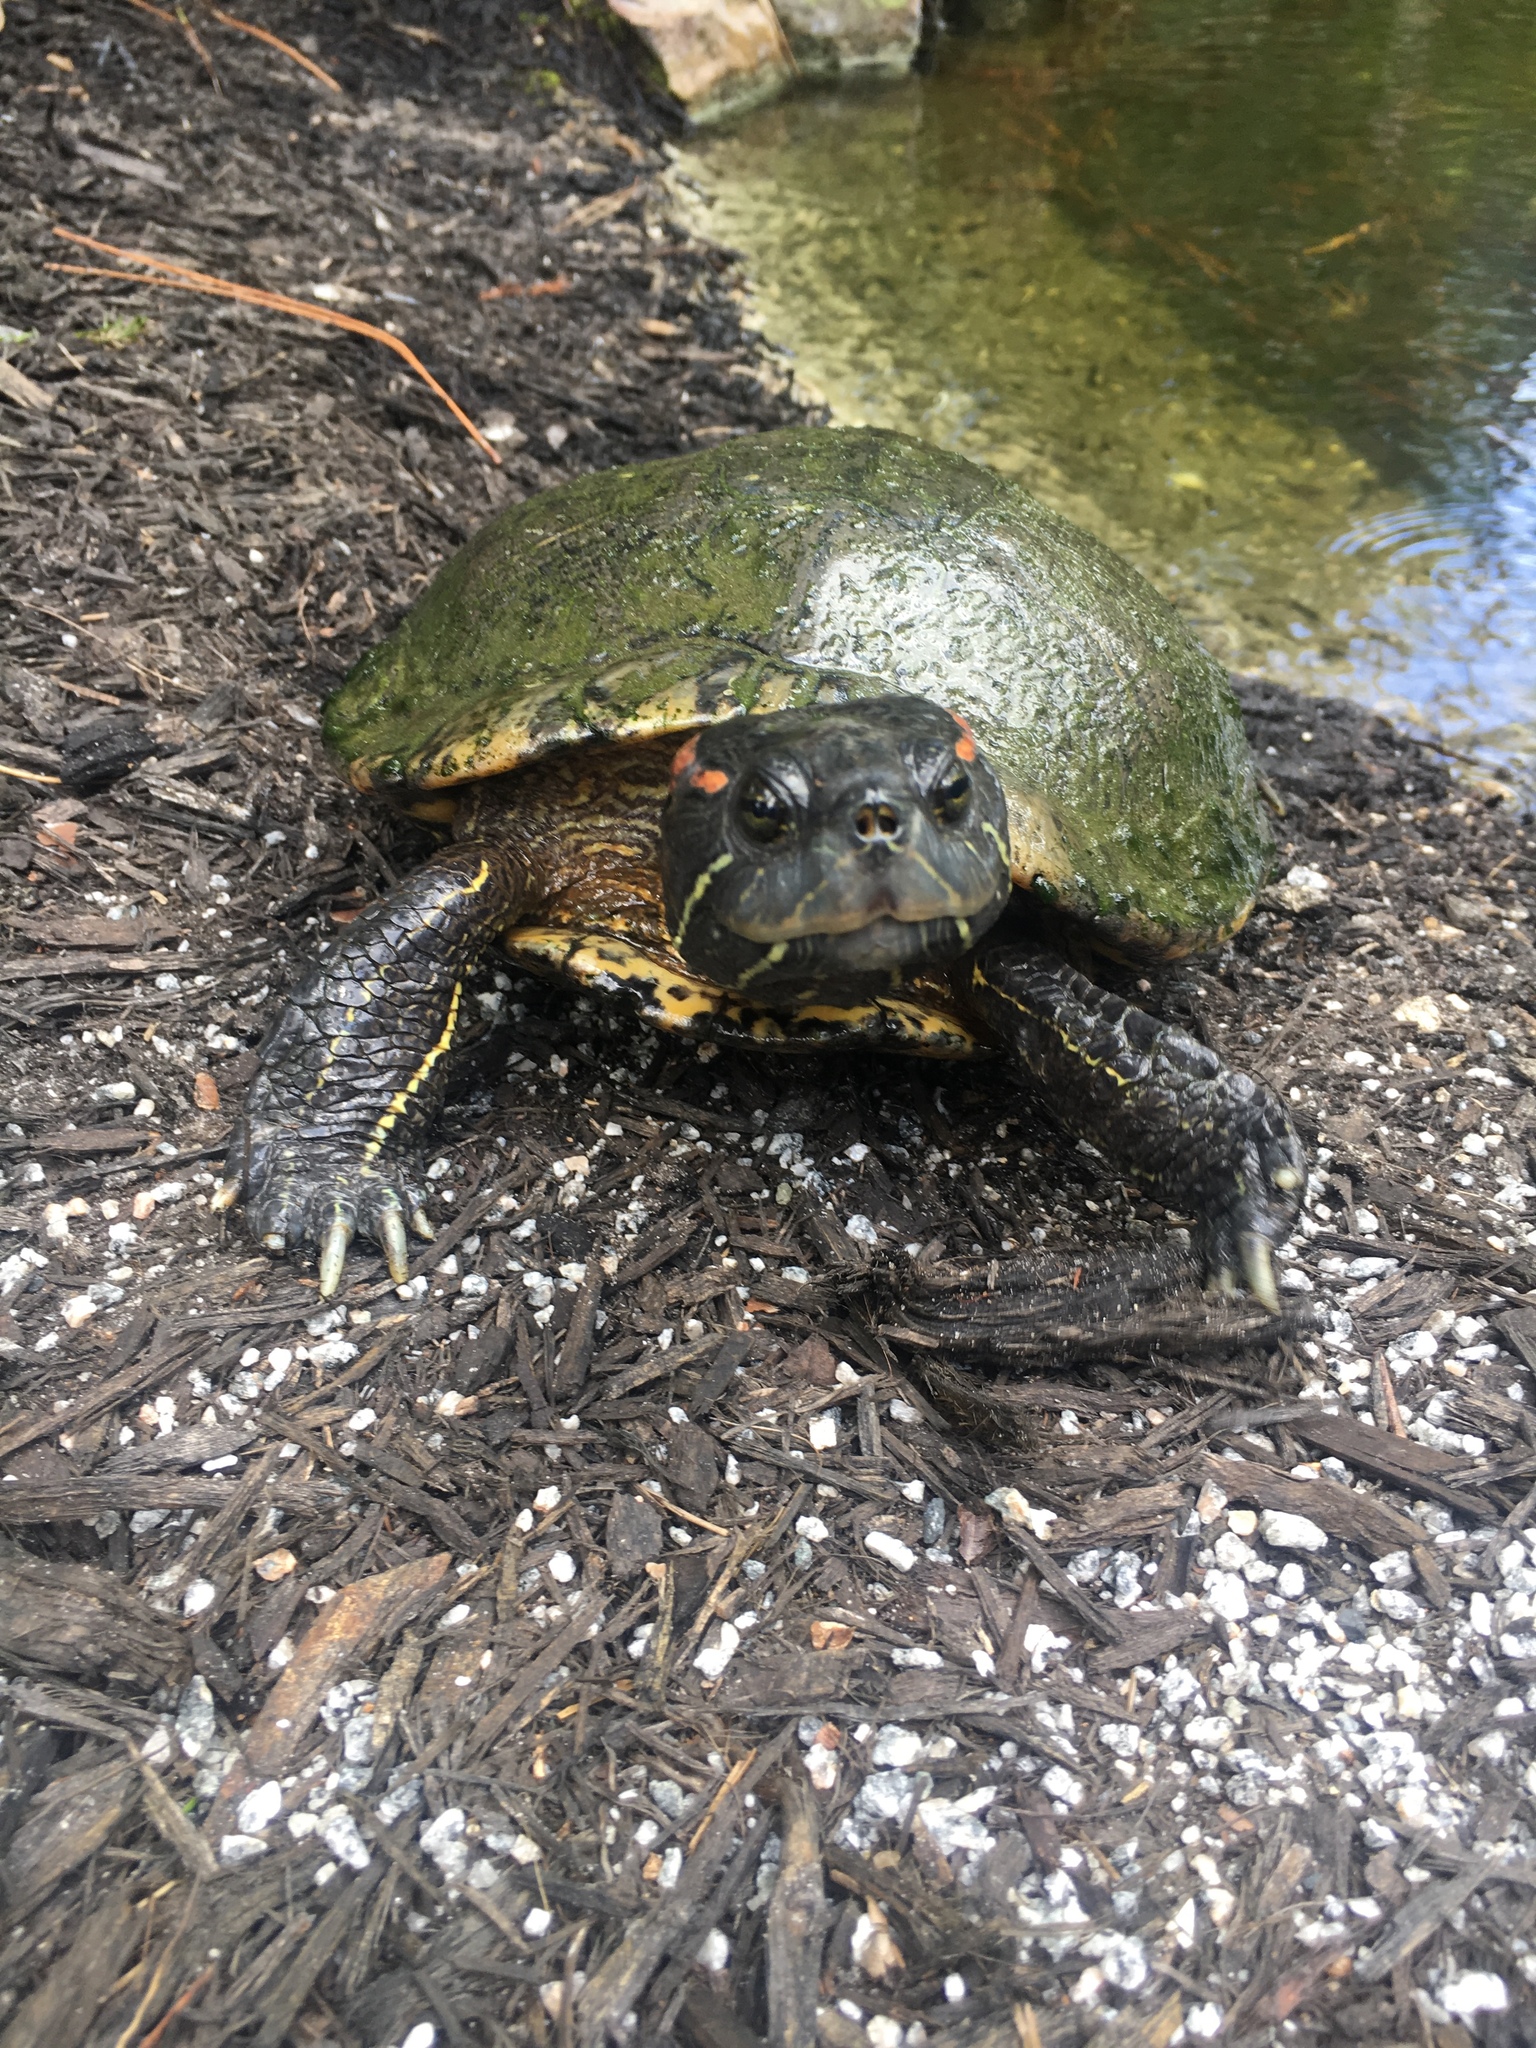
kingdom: Animalia
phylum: Chordata
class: Testudines
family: Emydidae
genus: Trachemys
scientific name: Trachemys scripta
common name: Slider
